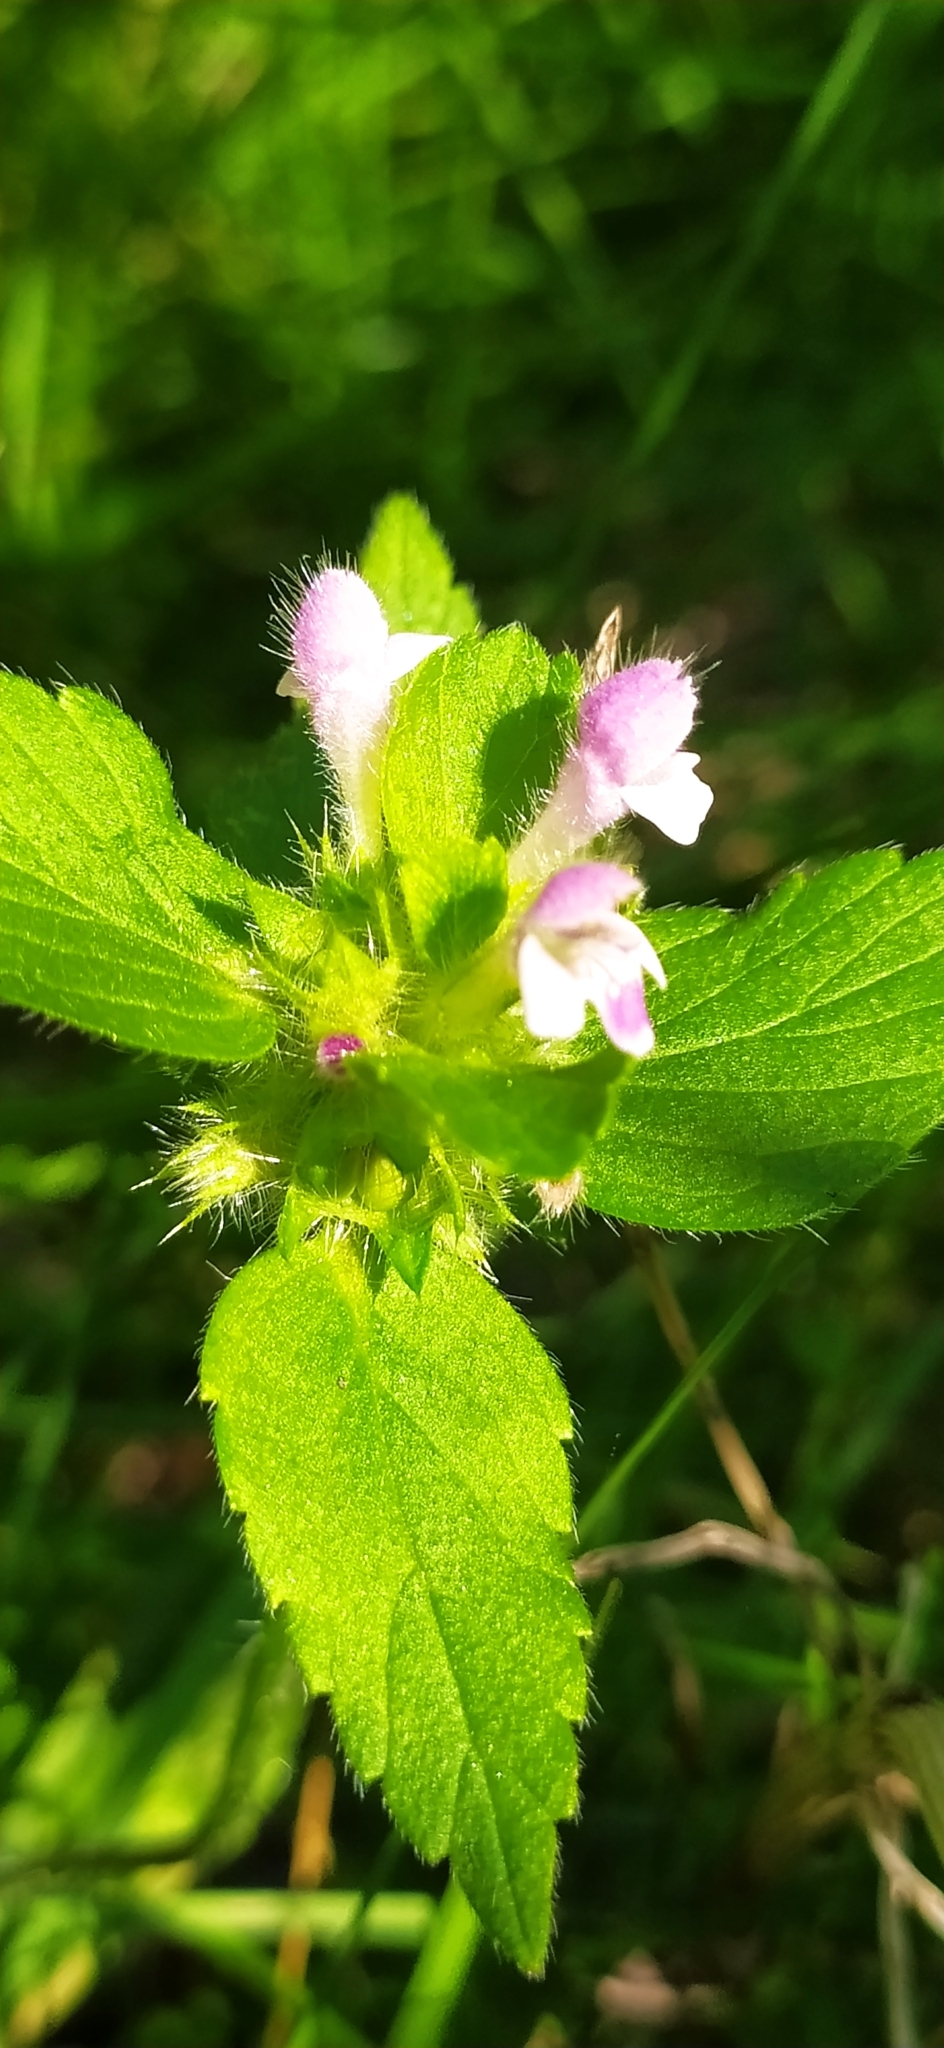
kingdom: Plantae
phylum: Tracheophyta
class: Magnoliopsida
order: Lamiales
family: Lamiaceae
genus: Galeopsis
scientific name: Galeopsis bifida
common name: Bifid hemp-nettle
